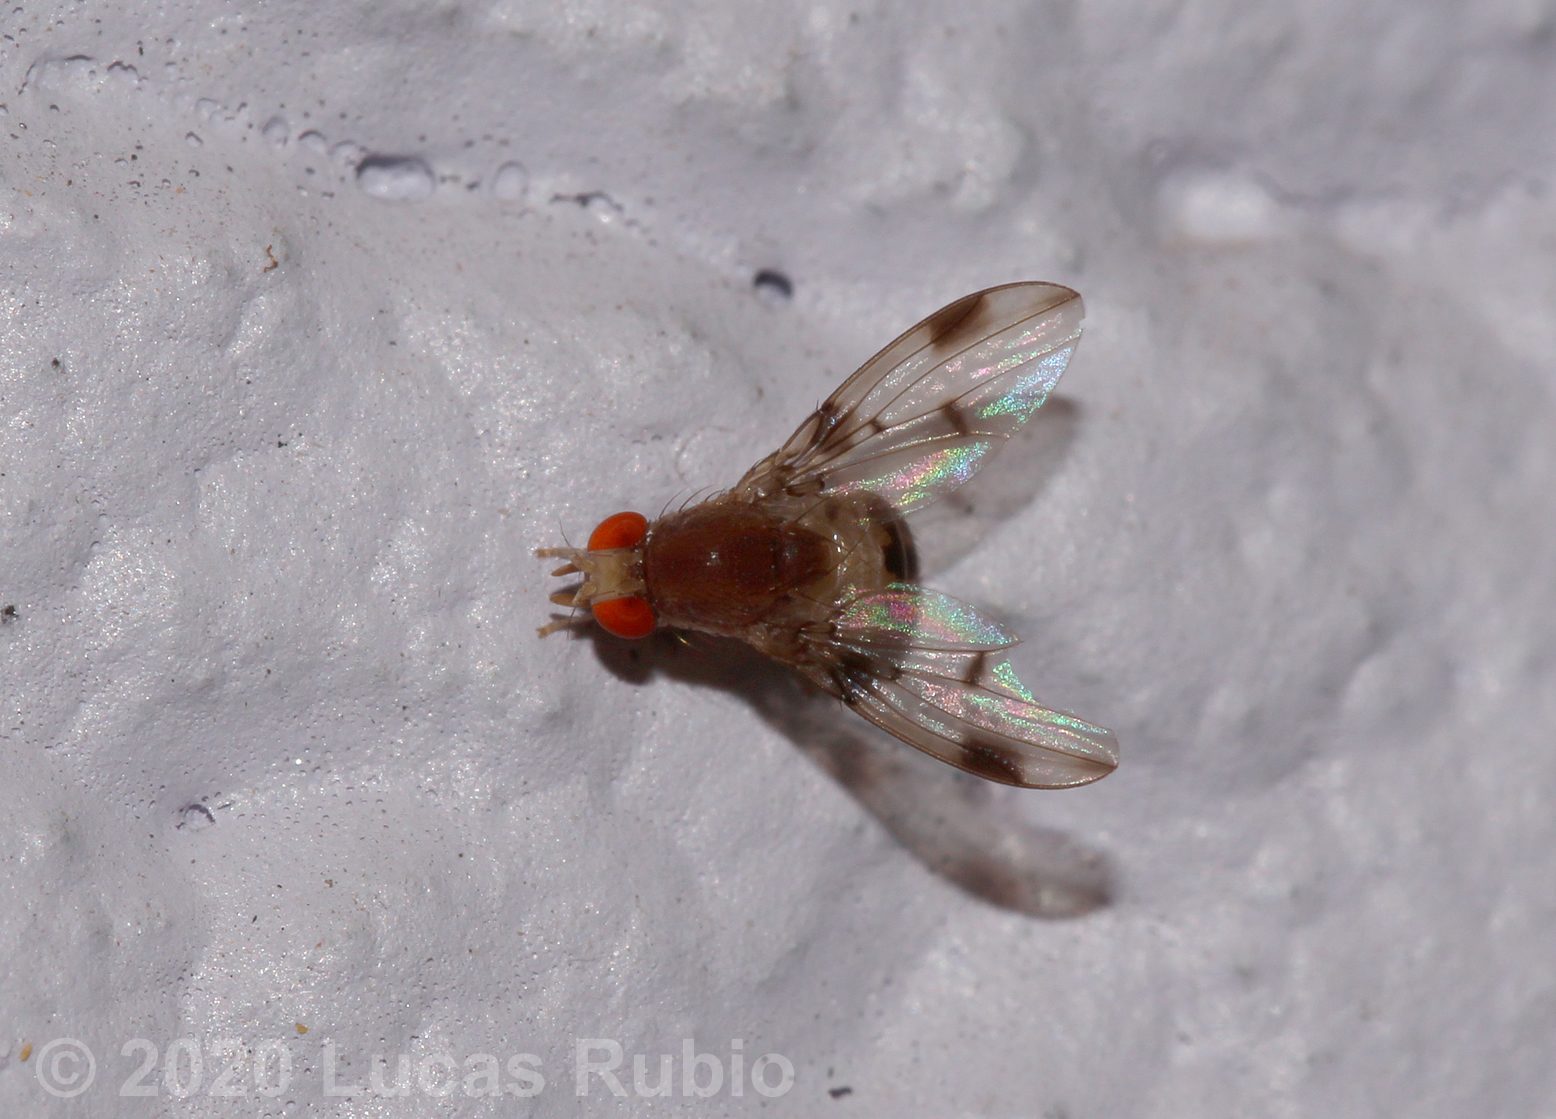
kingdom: Animalia
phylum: Arthropoda
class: Insecta
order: Diptera
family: Drosophilidae
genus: Leucophenga
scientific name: Leucophenga maculosa
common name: Pomace fly
